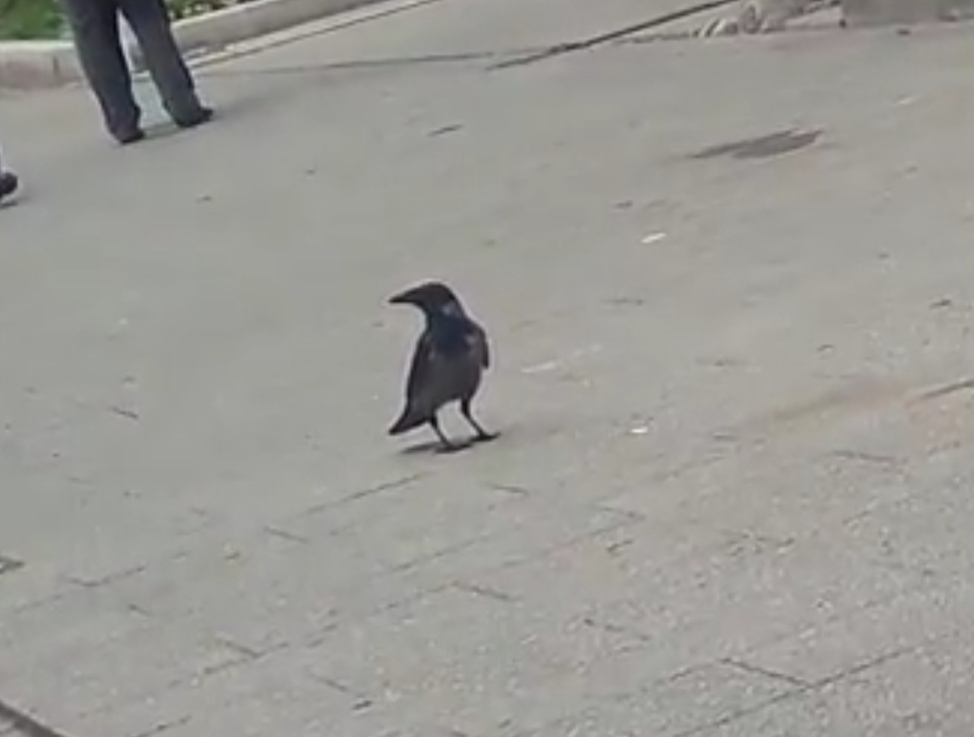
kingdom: Animalia
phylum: Chordata
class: Aves
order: Passeriformes
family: Corvidae
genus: Corvus
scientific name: Corvus cornix
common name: Hooded crow
